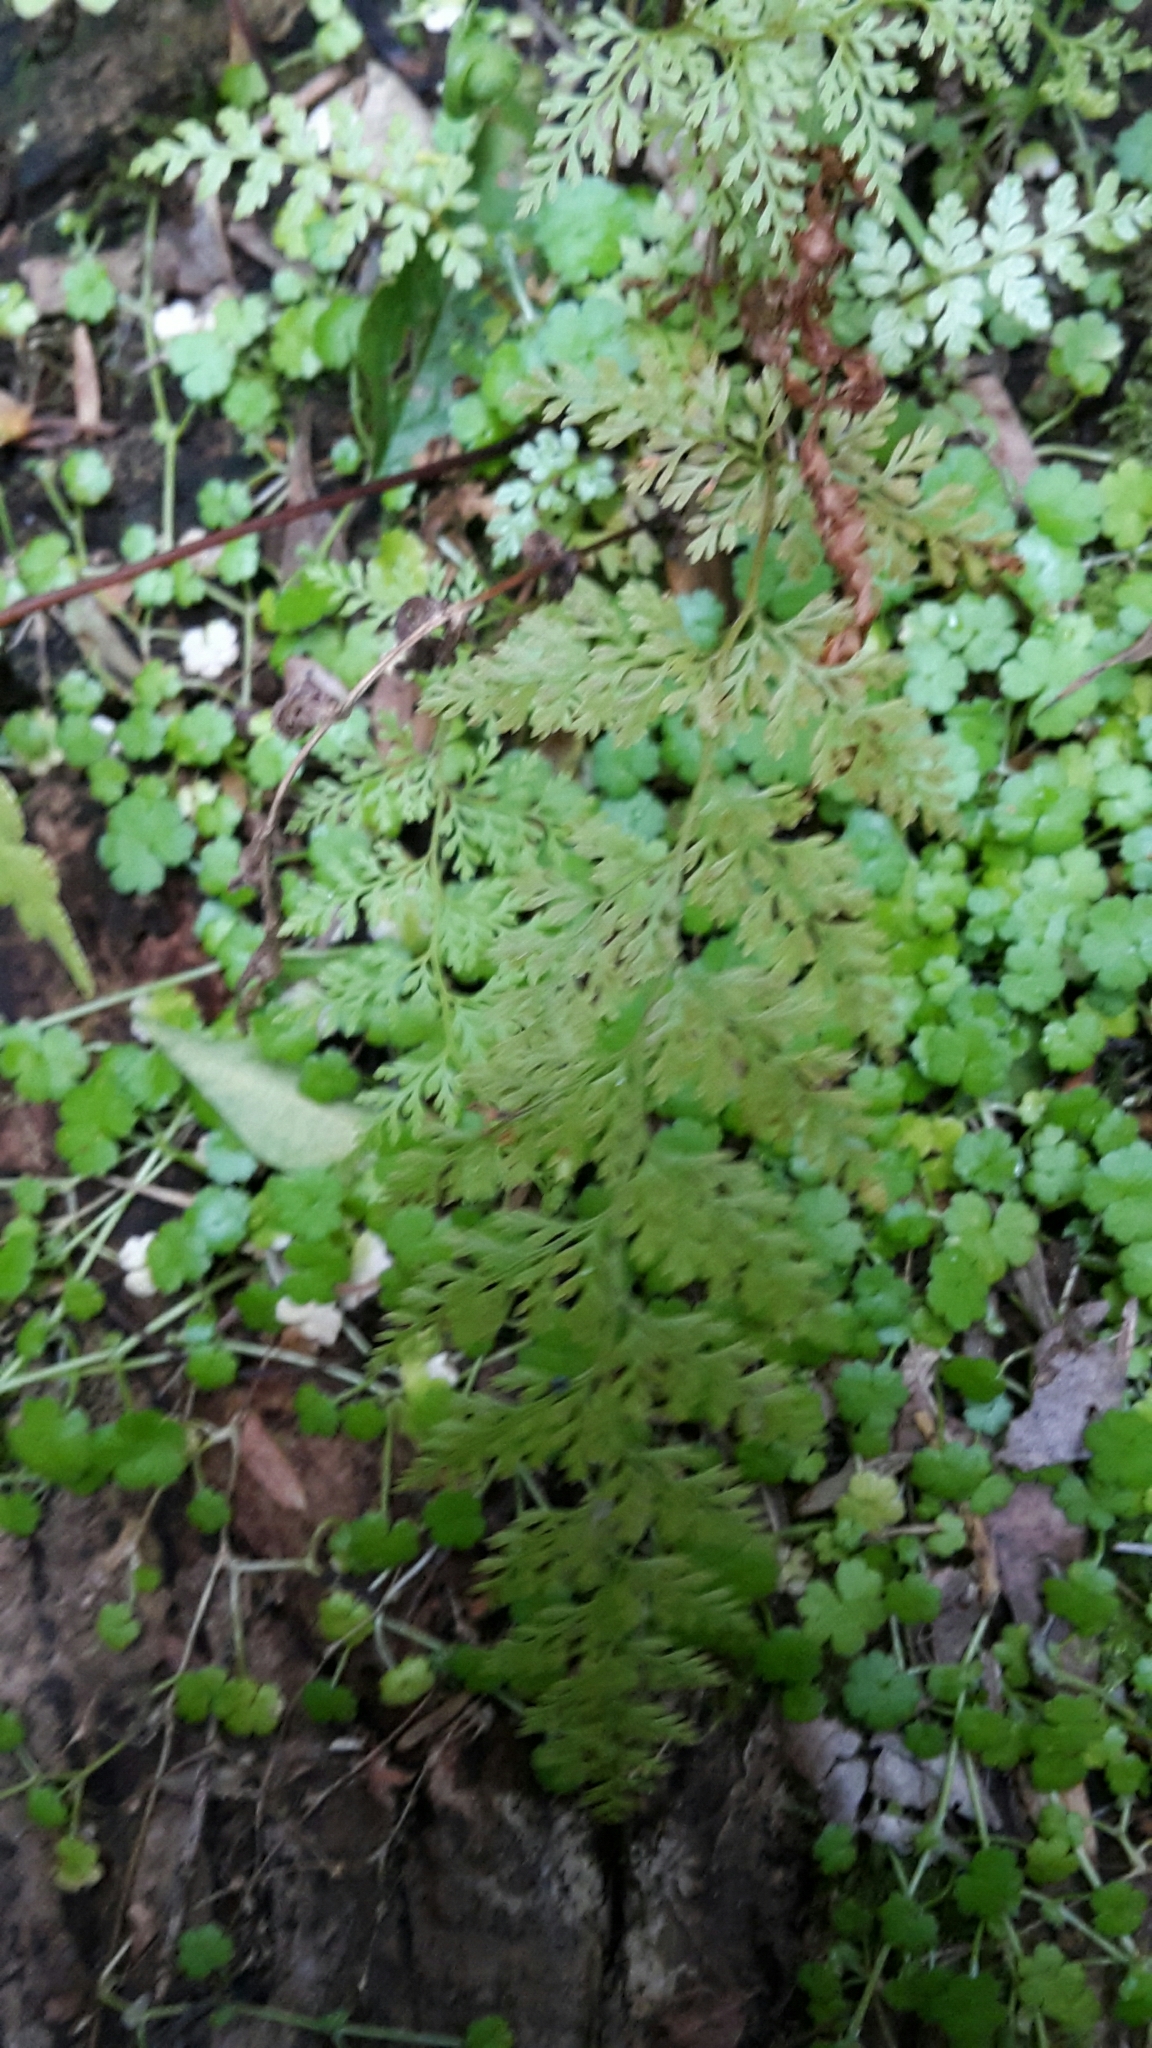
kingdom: Plantae
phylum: Tracheophyta
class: Polypodiopsida
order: Polypodiales
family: Dennstaedtiaceae
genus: Paesia
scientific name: Paesia scaberula
